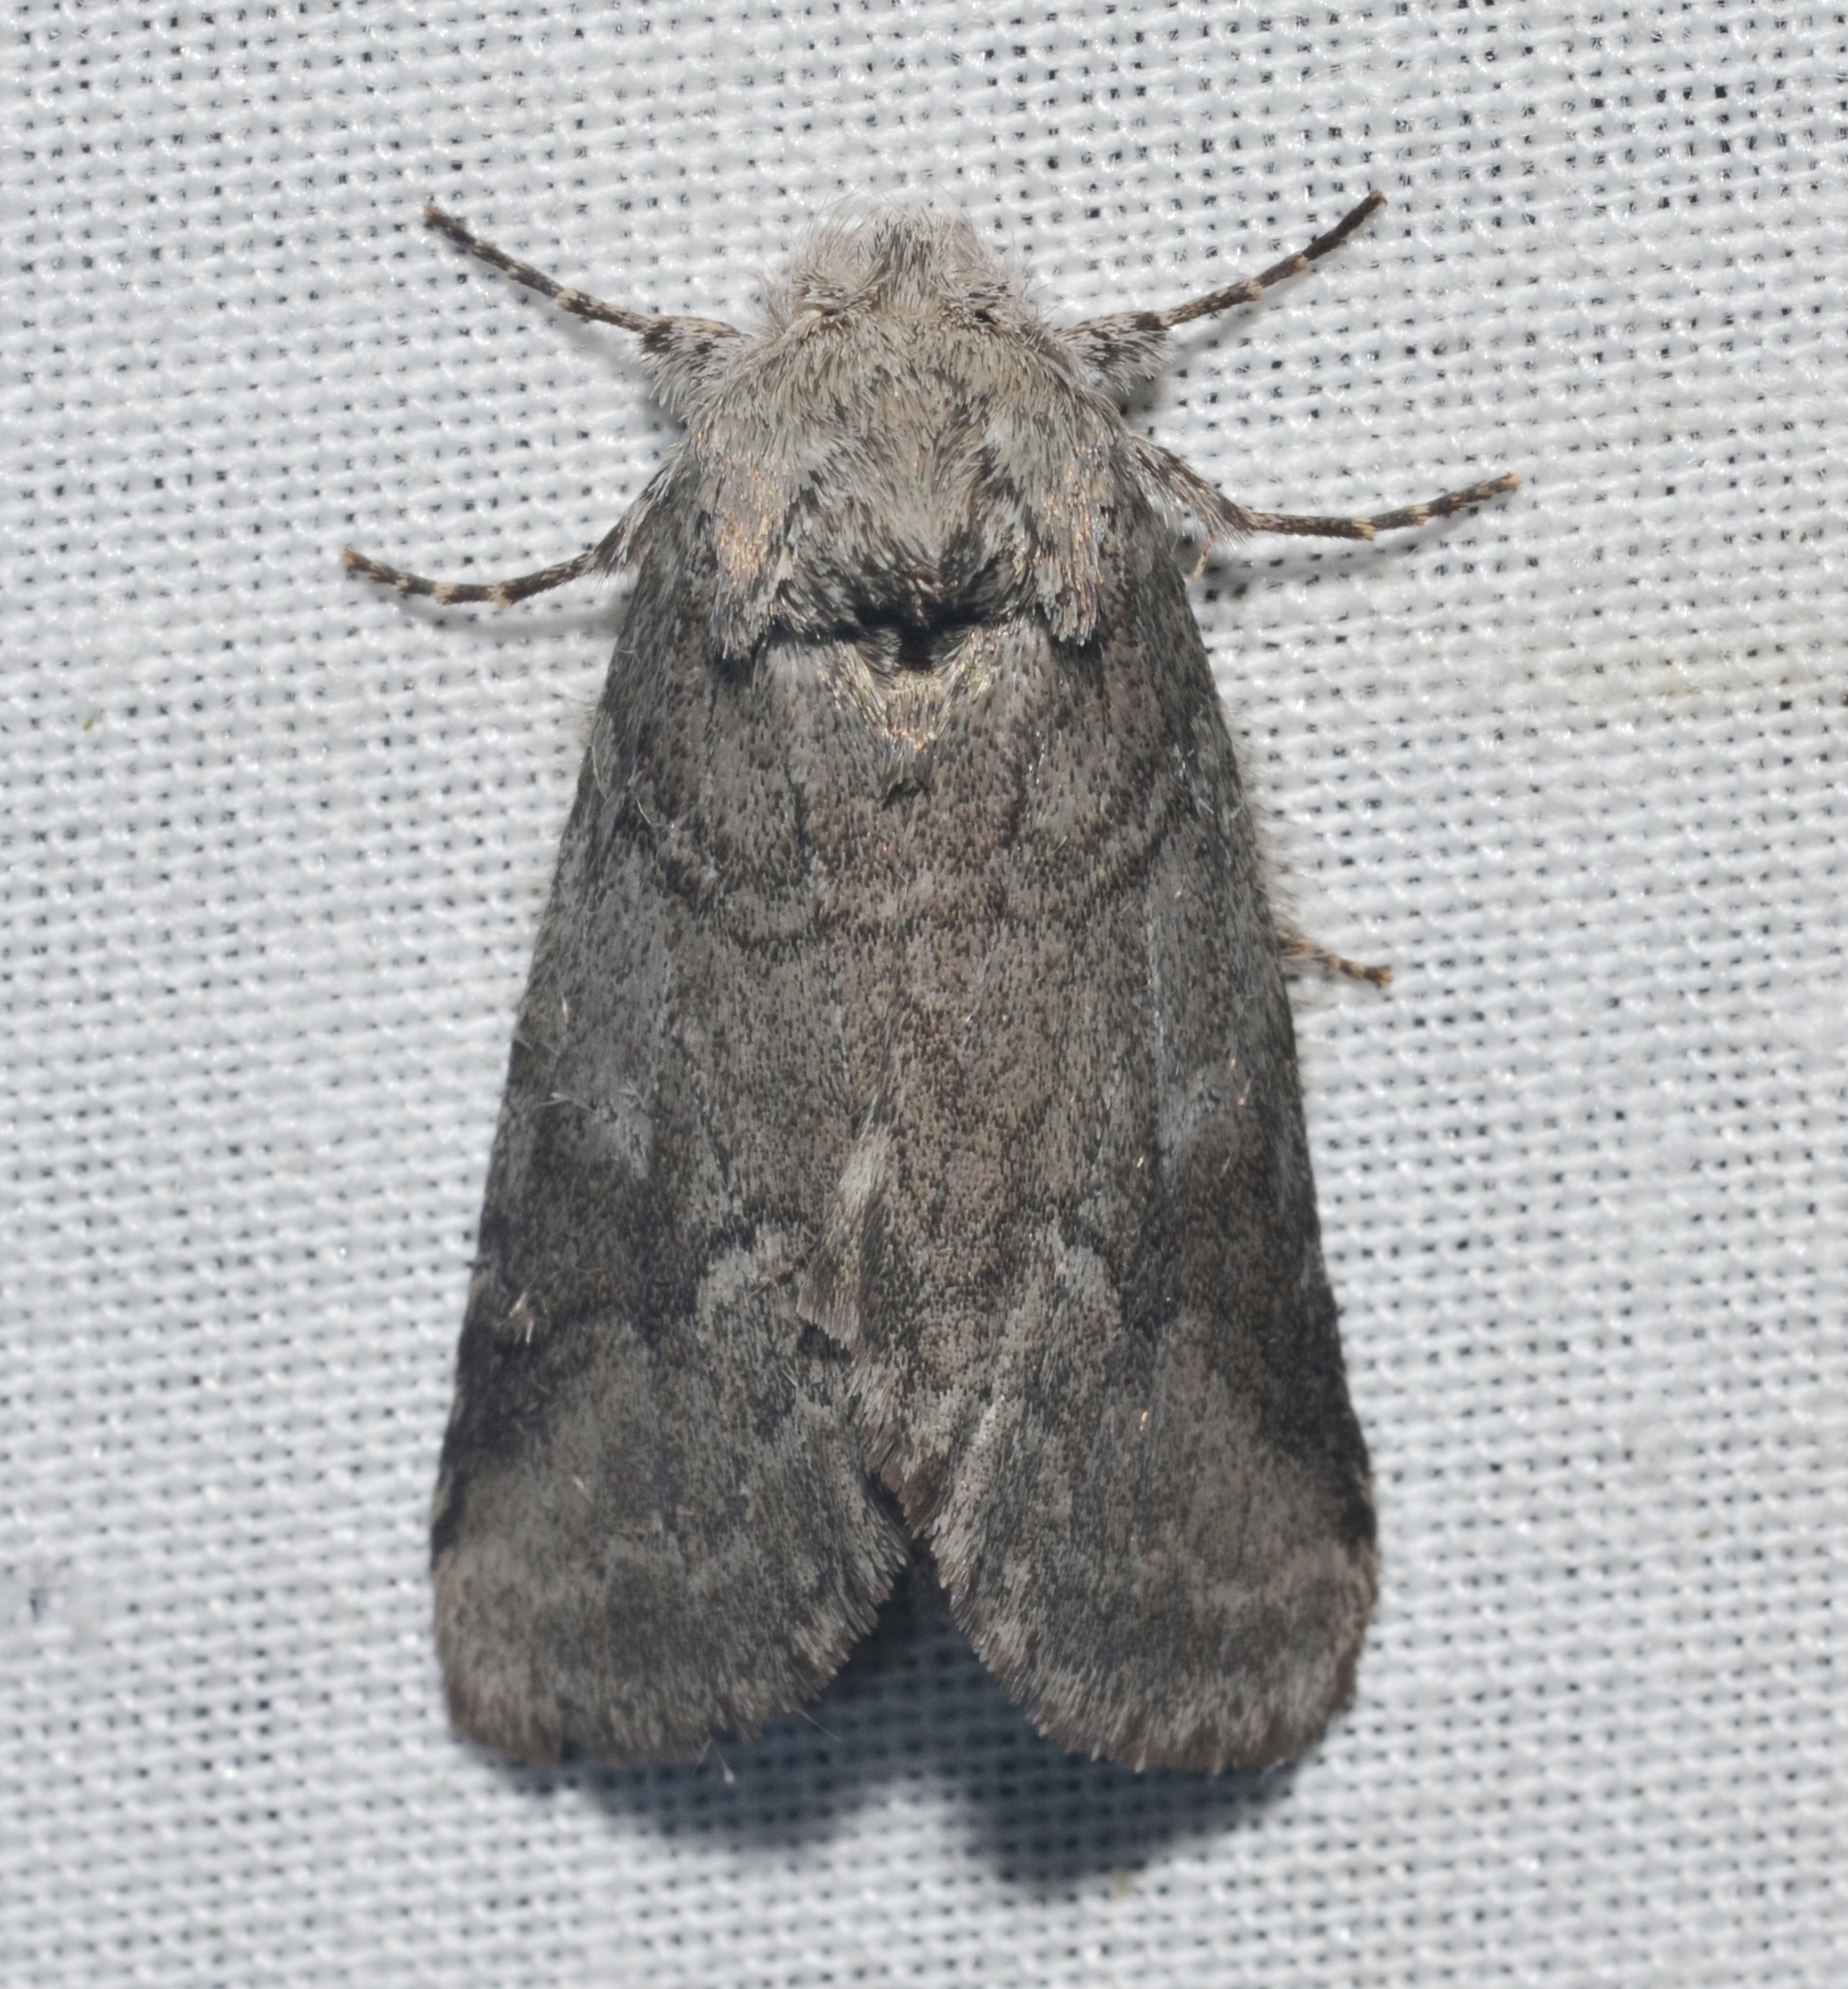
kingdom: Animalia
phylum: Arthropoda
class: Insecta
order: Lepidoptera
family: Notodontidae
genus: Lochmaeus
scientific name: Lochmaeus bilineata
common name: Double-lined prominent
